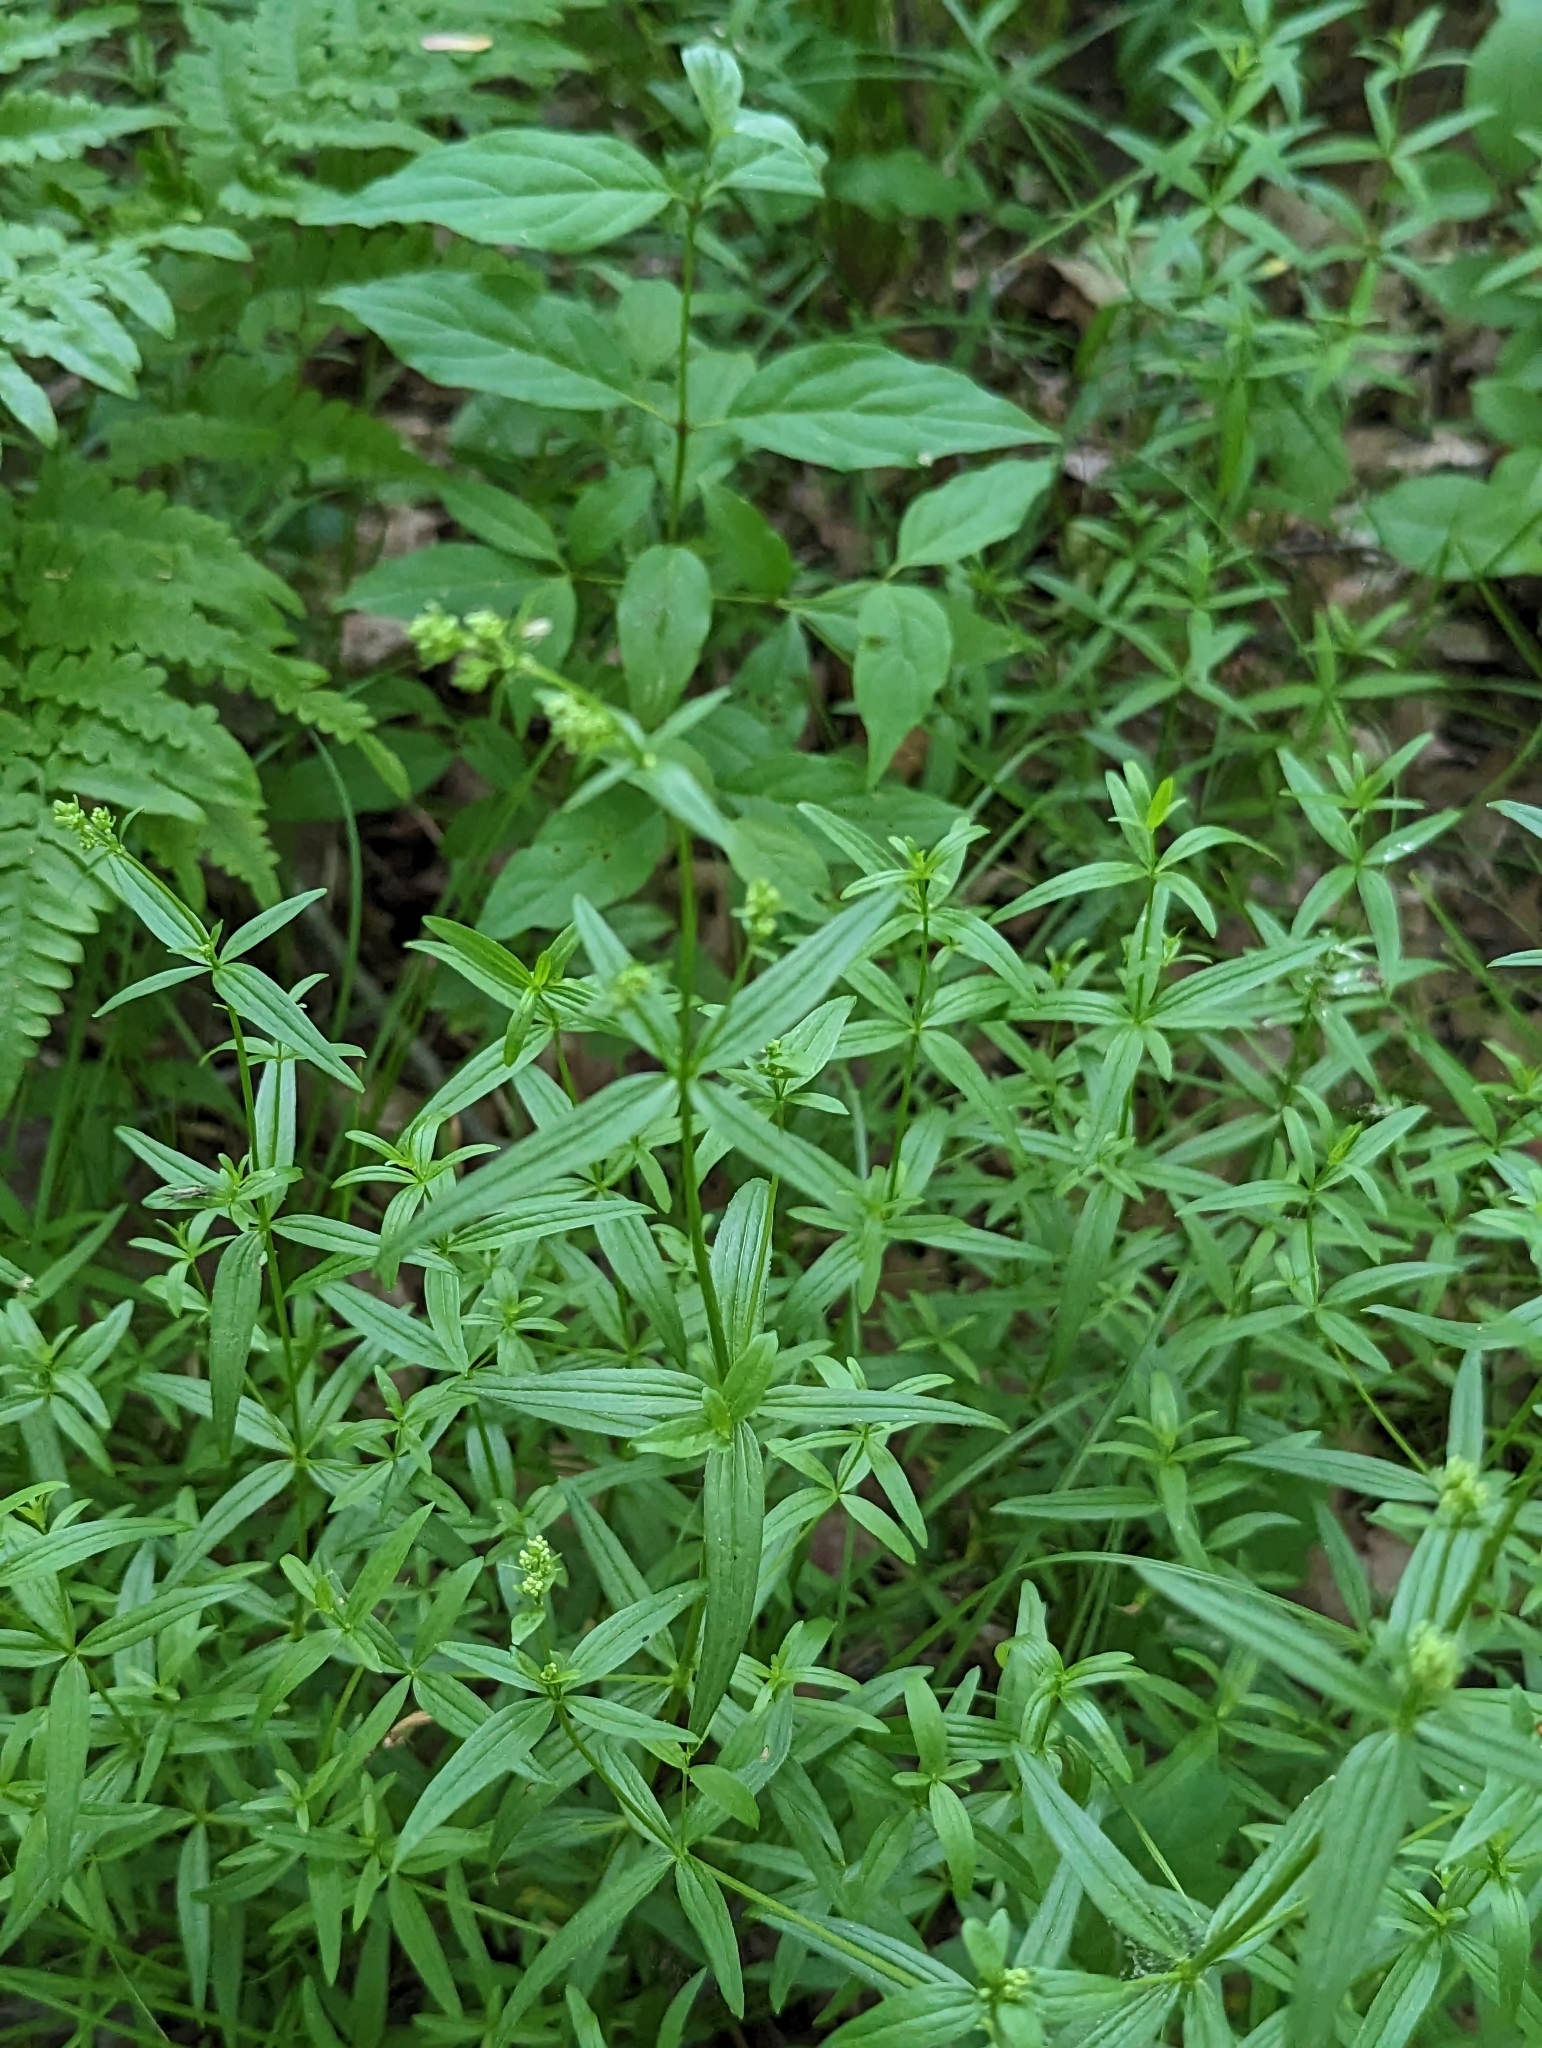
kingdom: Plantae
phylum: Tracheophyta
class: Magnoliopsida
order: Gentianales
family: Rubiaceae
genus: Galium
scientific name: Galium boreale
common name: Northern bedstraw
